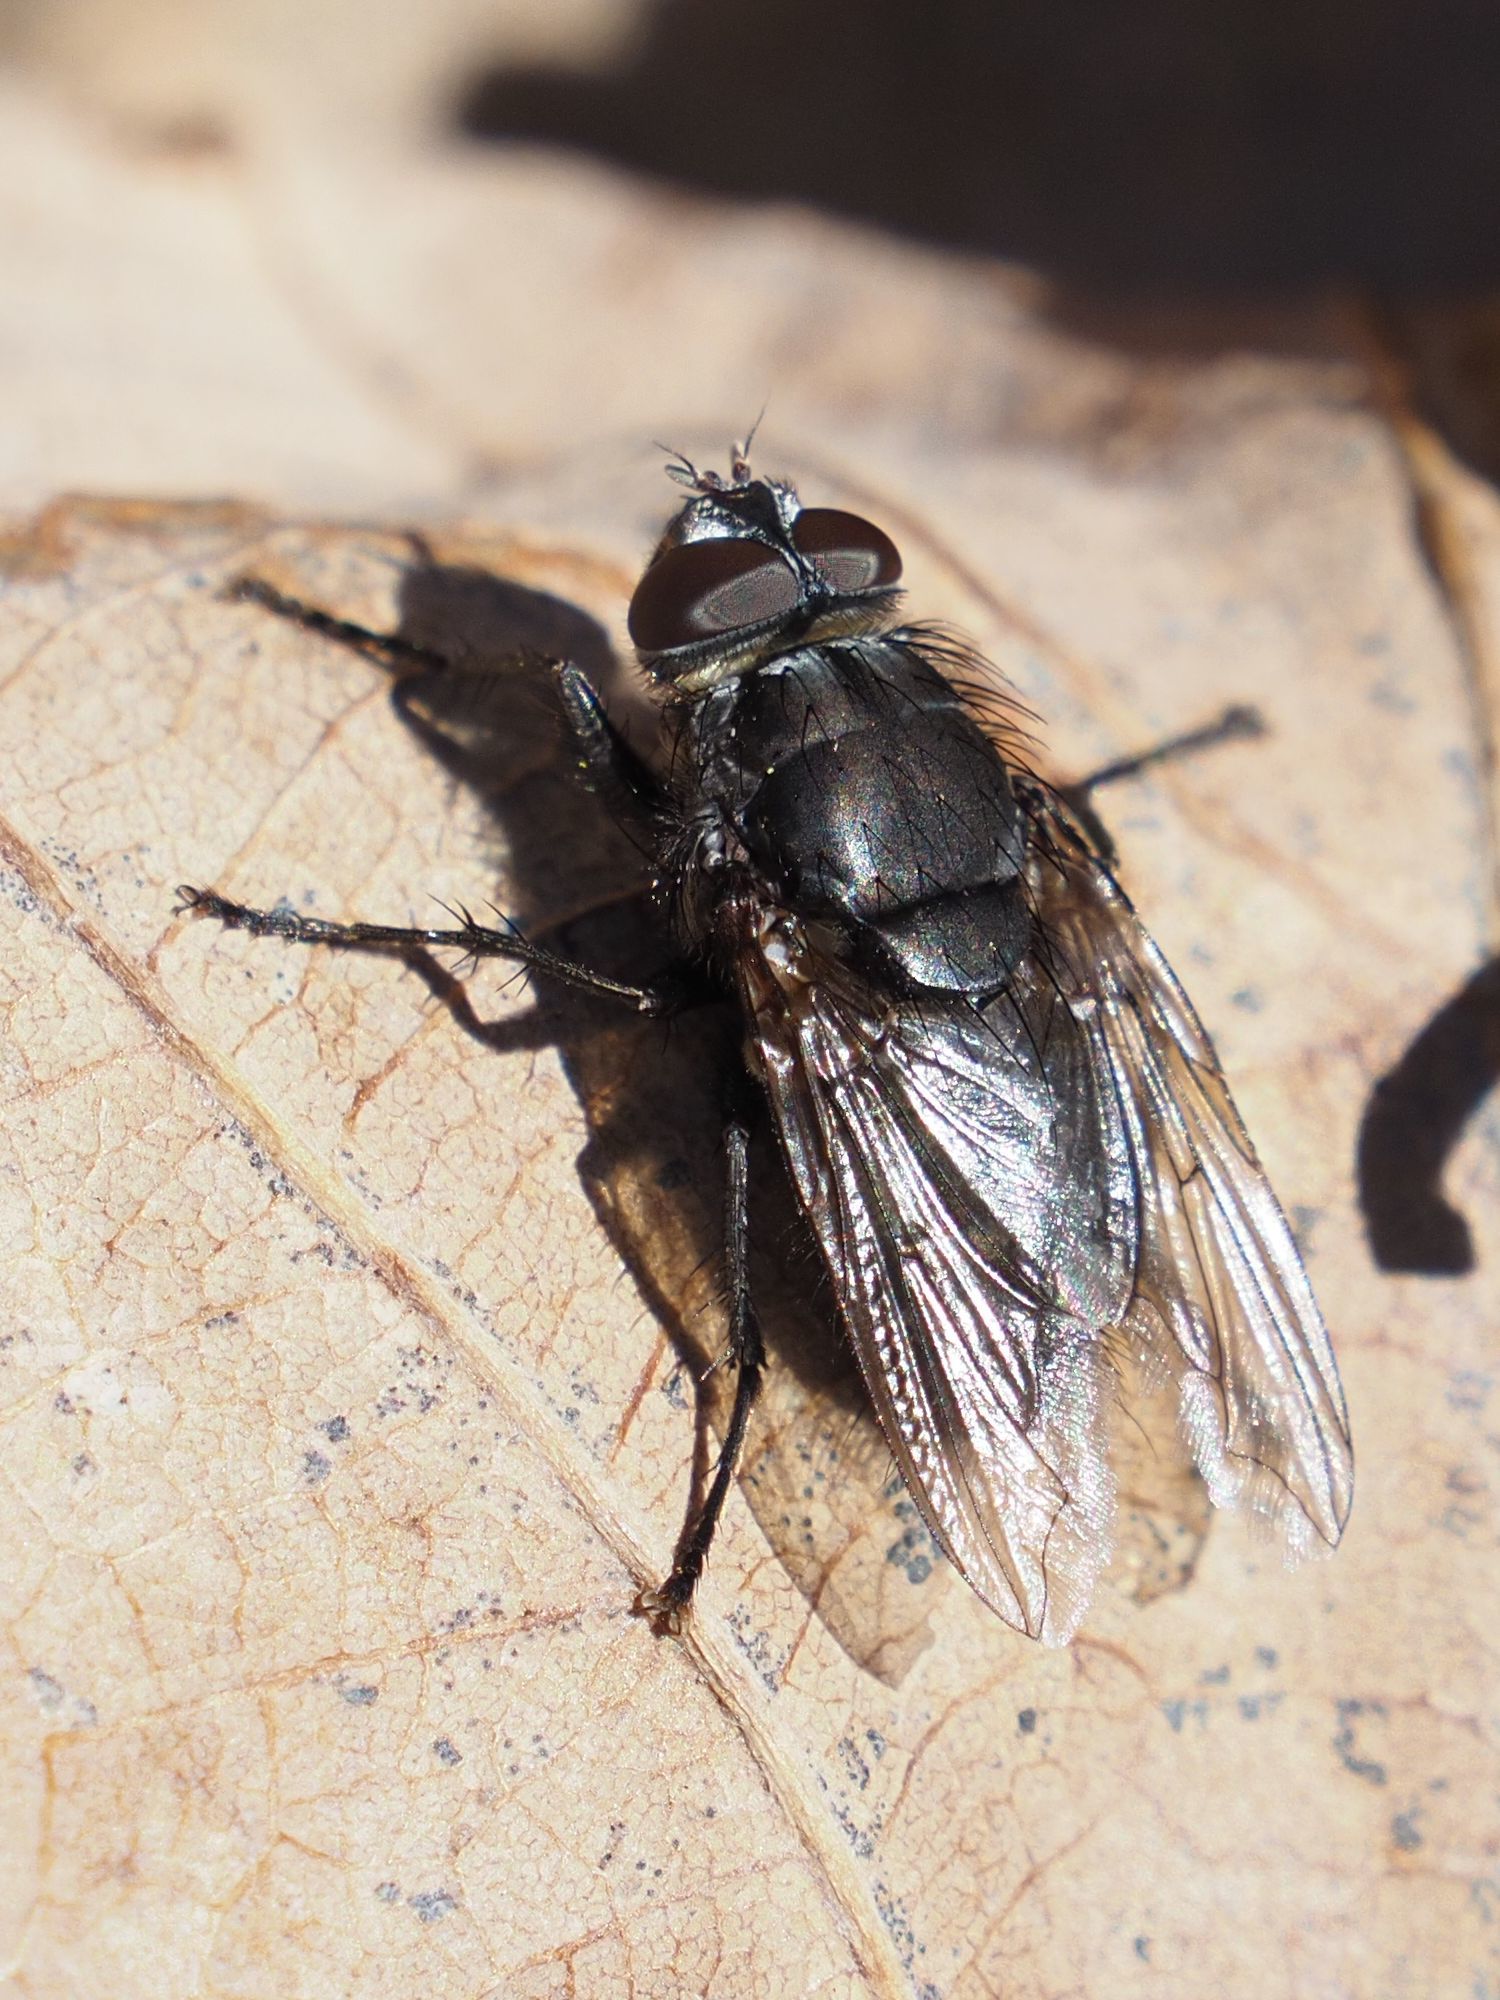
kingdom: Animalia
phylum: Arthropoda
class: Insecta
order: Diptera
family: Polleniidae
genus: Pollenia
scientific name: Pollenia vagabunda
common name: Vagabund cluster fly
